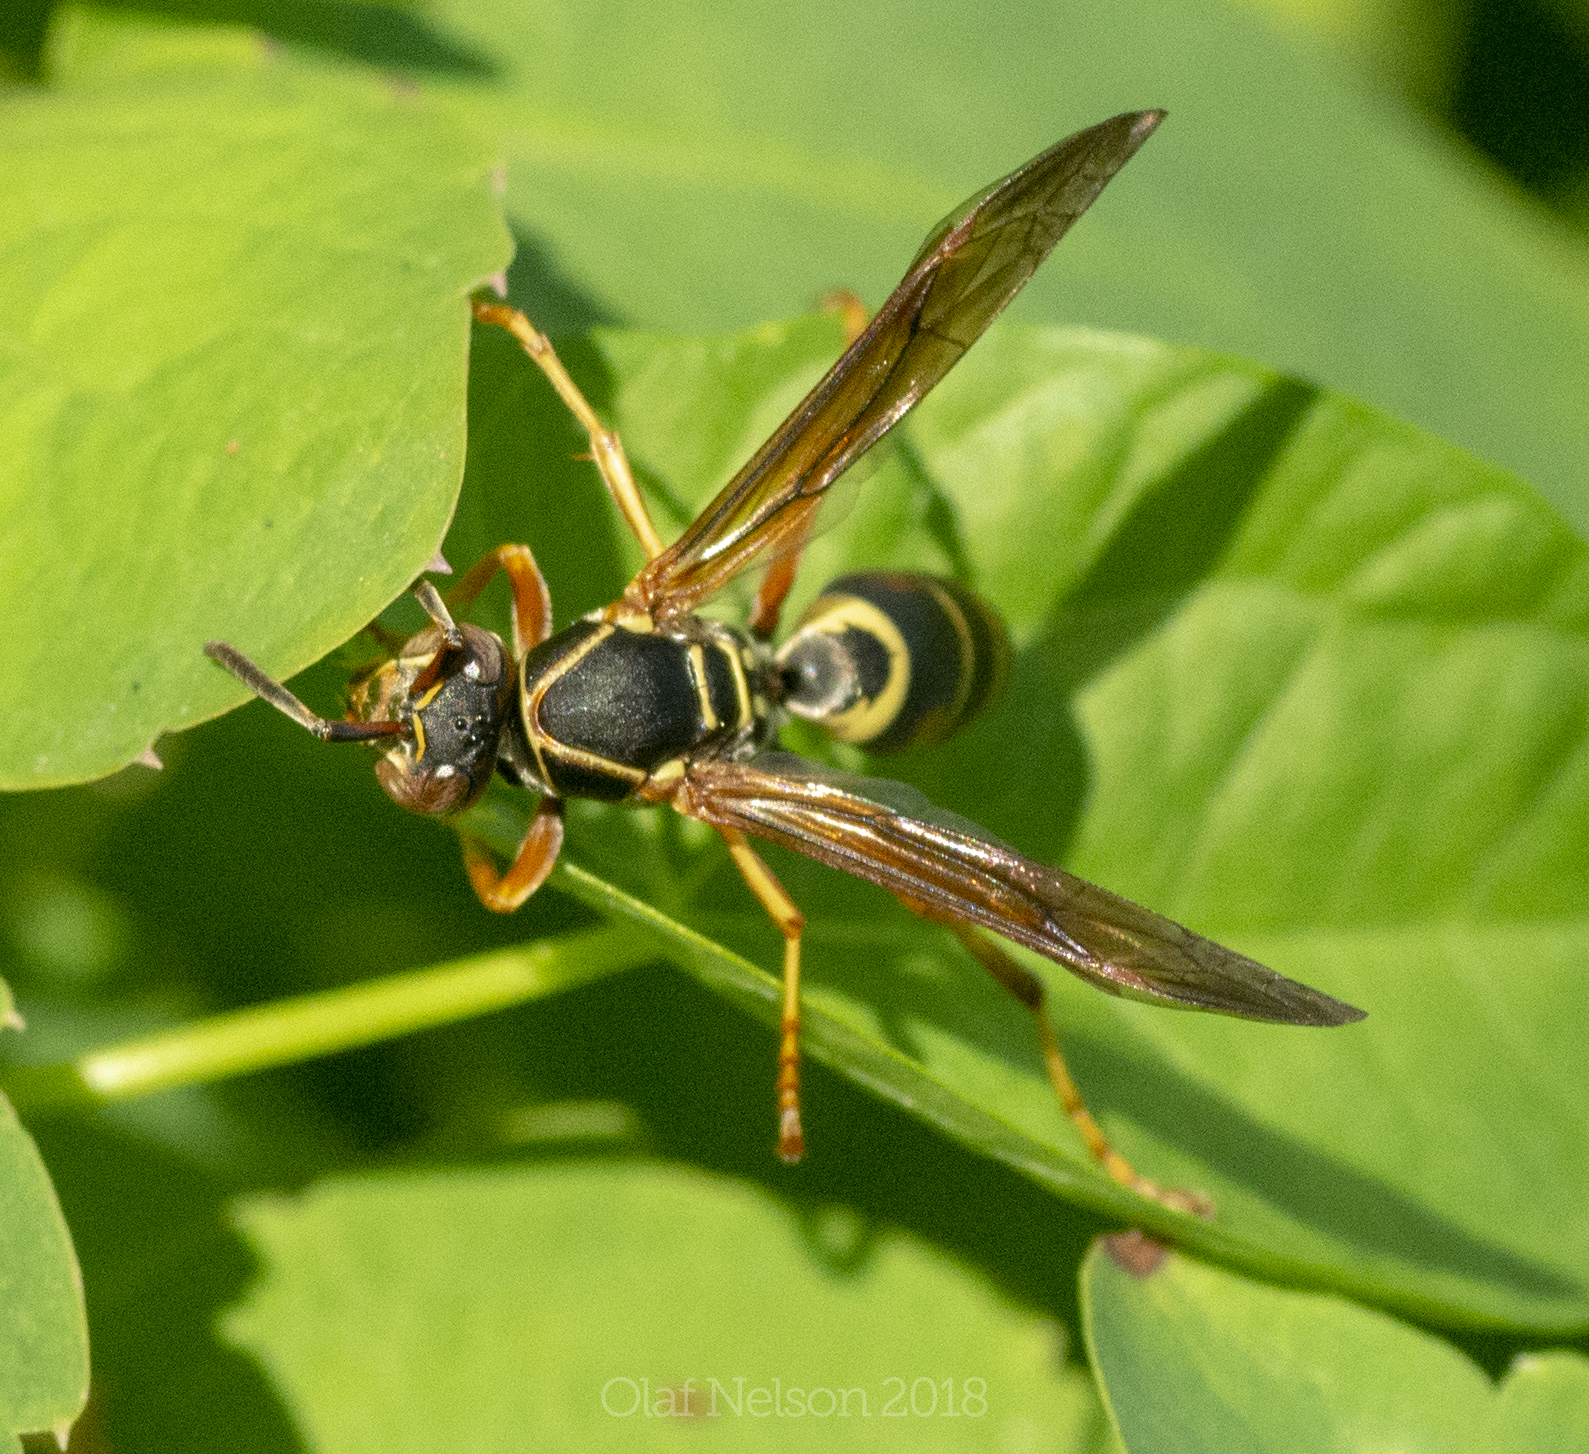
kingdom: Animalia
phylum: Arthropoda
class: Insecta
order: Hymenoptera
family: Eumenidae
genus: Polistes
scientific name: Polistes fuscatus
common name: Dark paper wasp
